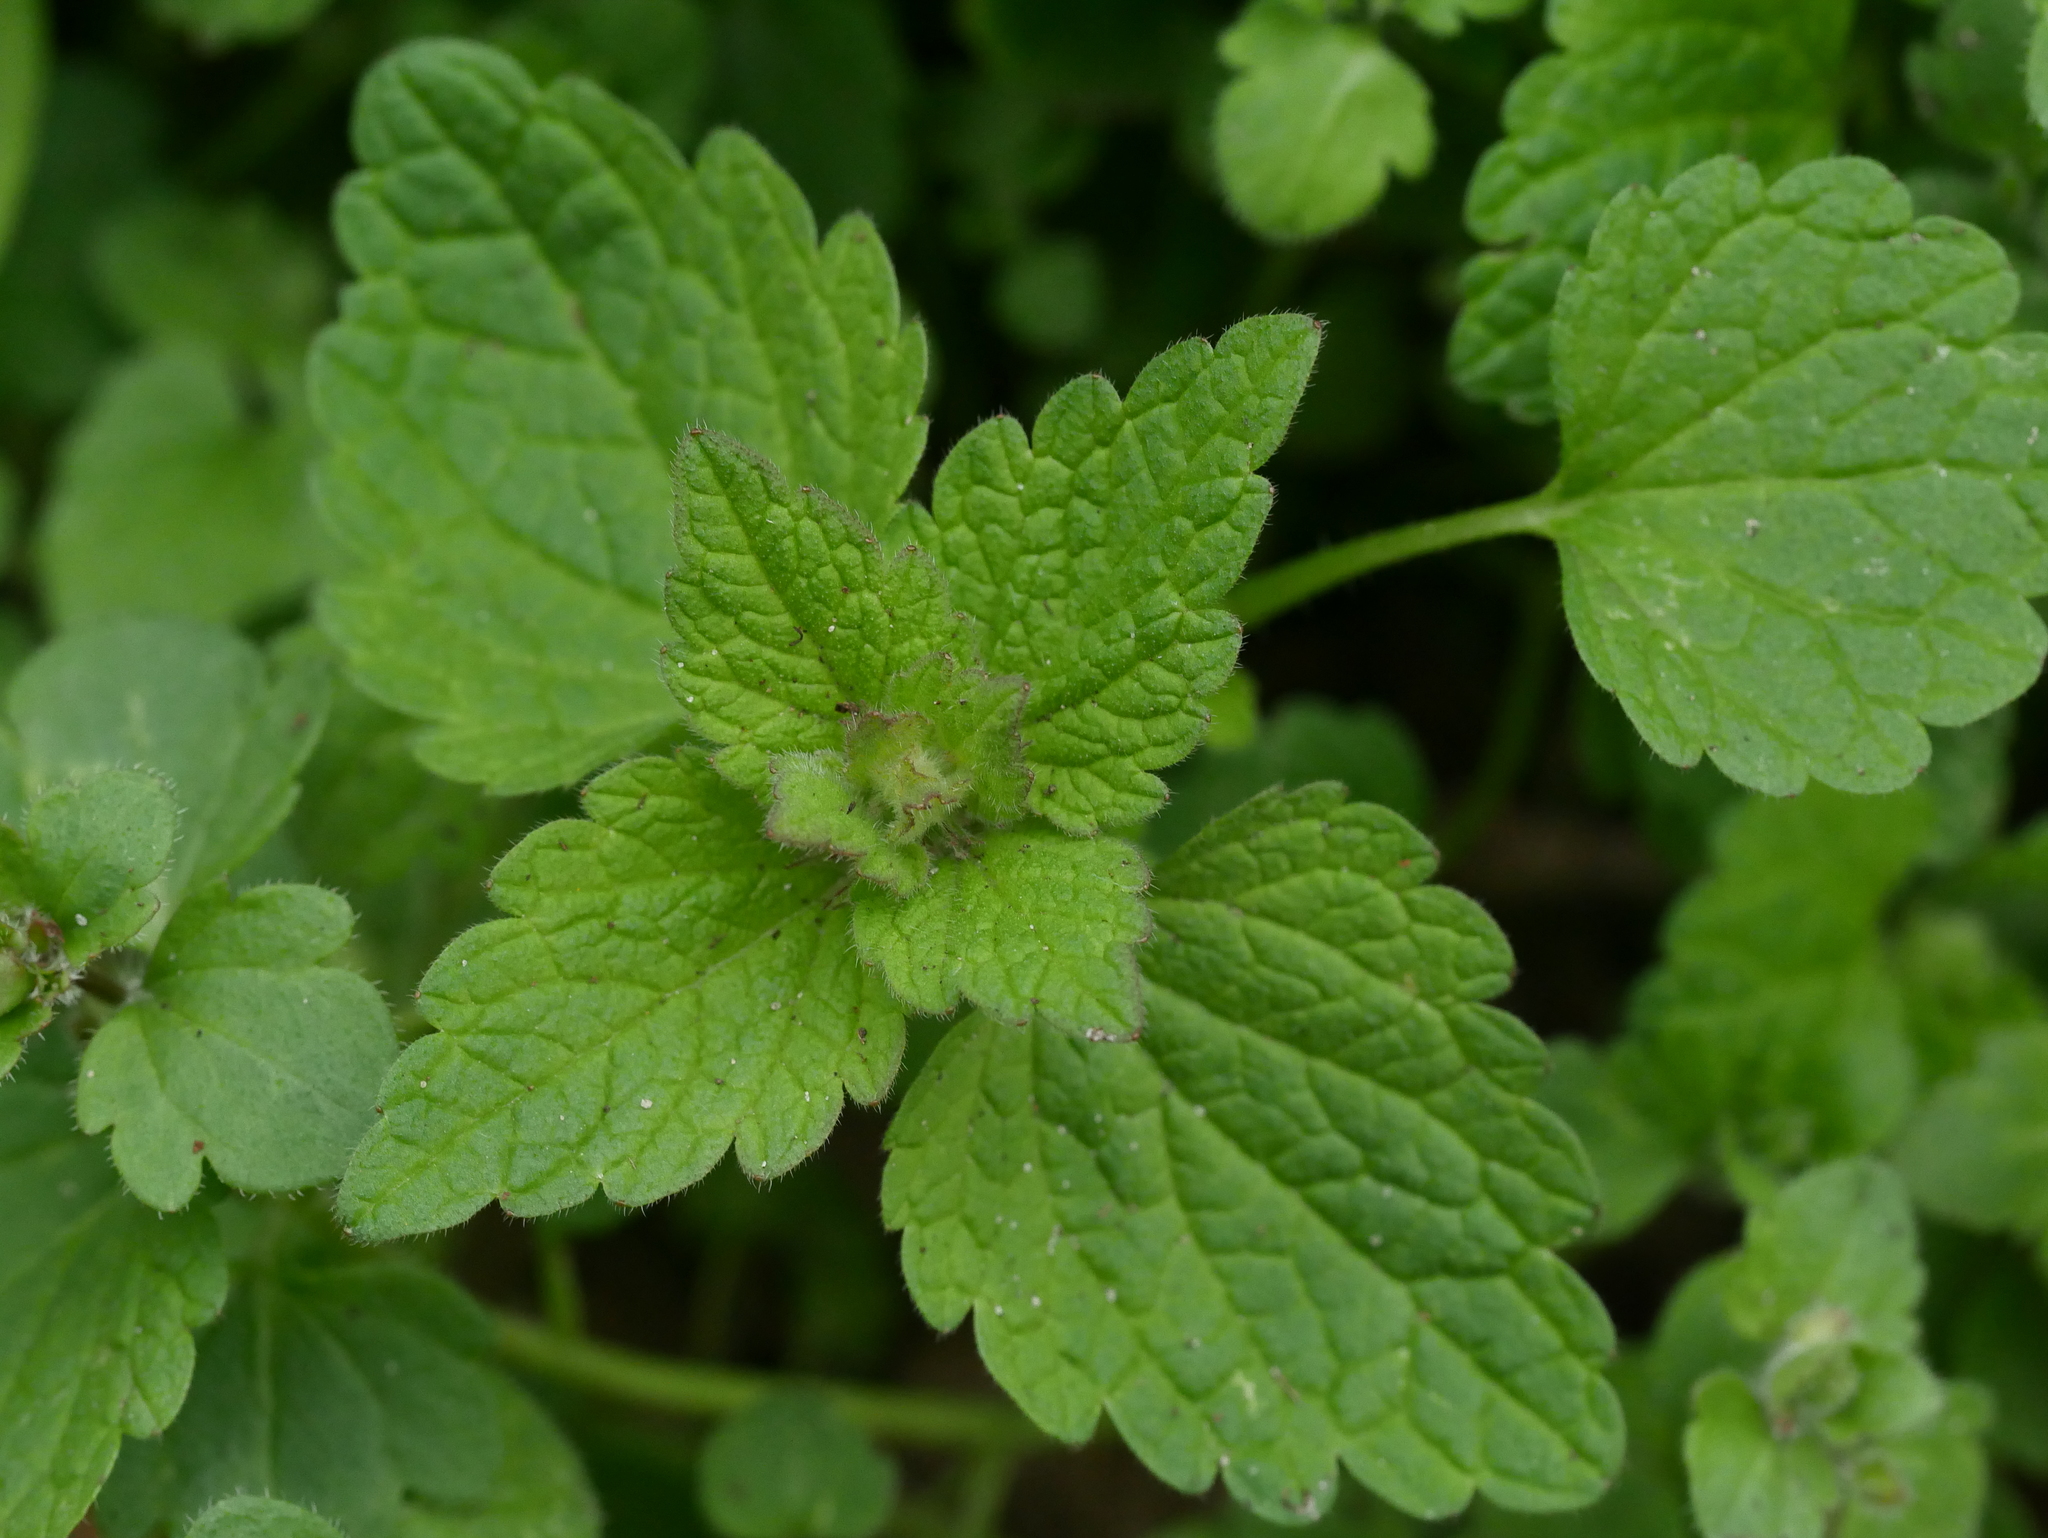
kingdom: Plantae
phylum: Tracheophyta
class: Magnoliopsida
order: Lamiales
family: Lamiaceae
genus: Lamium
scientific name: Lamium purpureum
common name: Red dead-nettle
